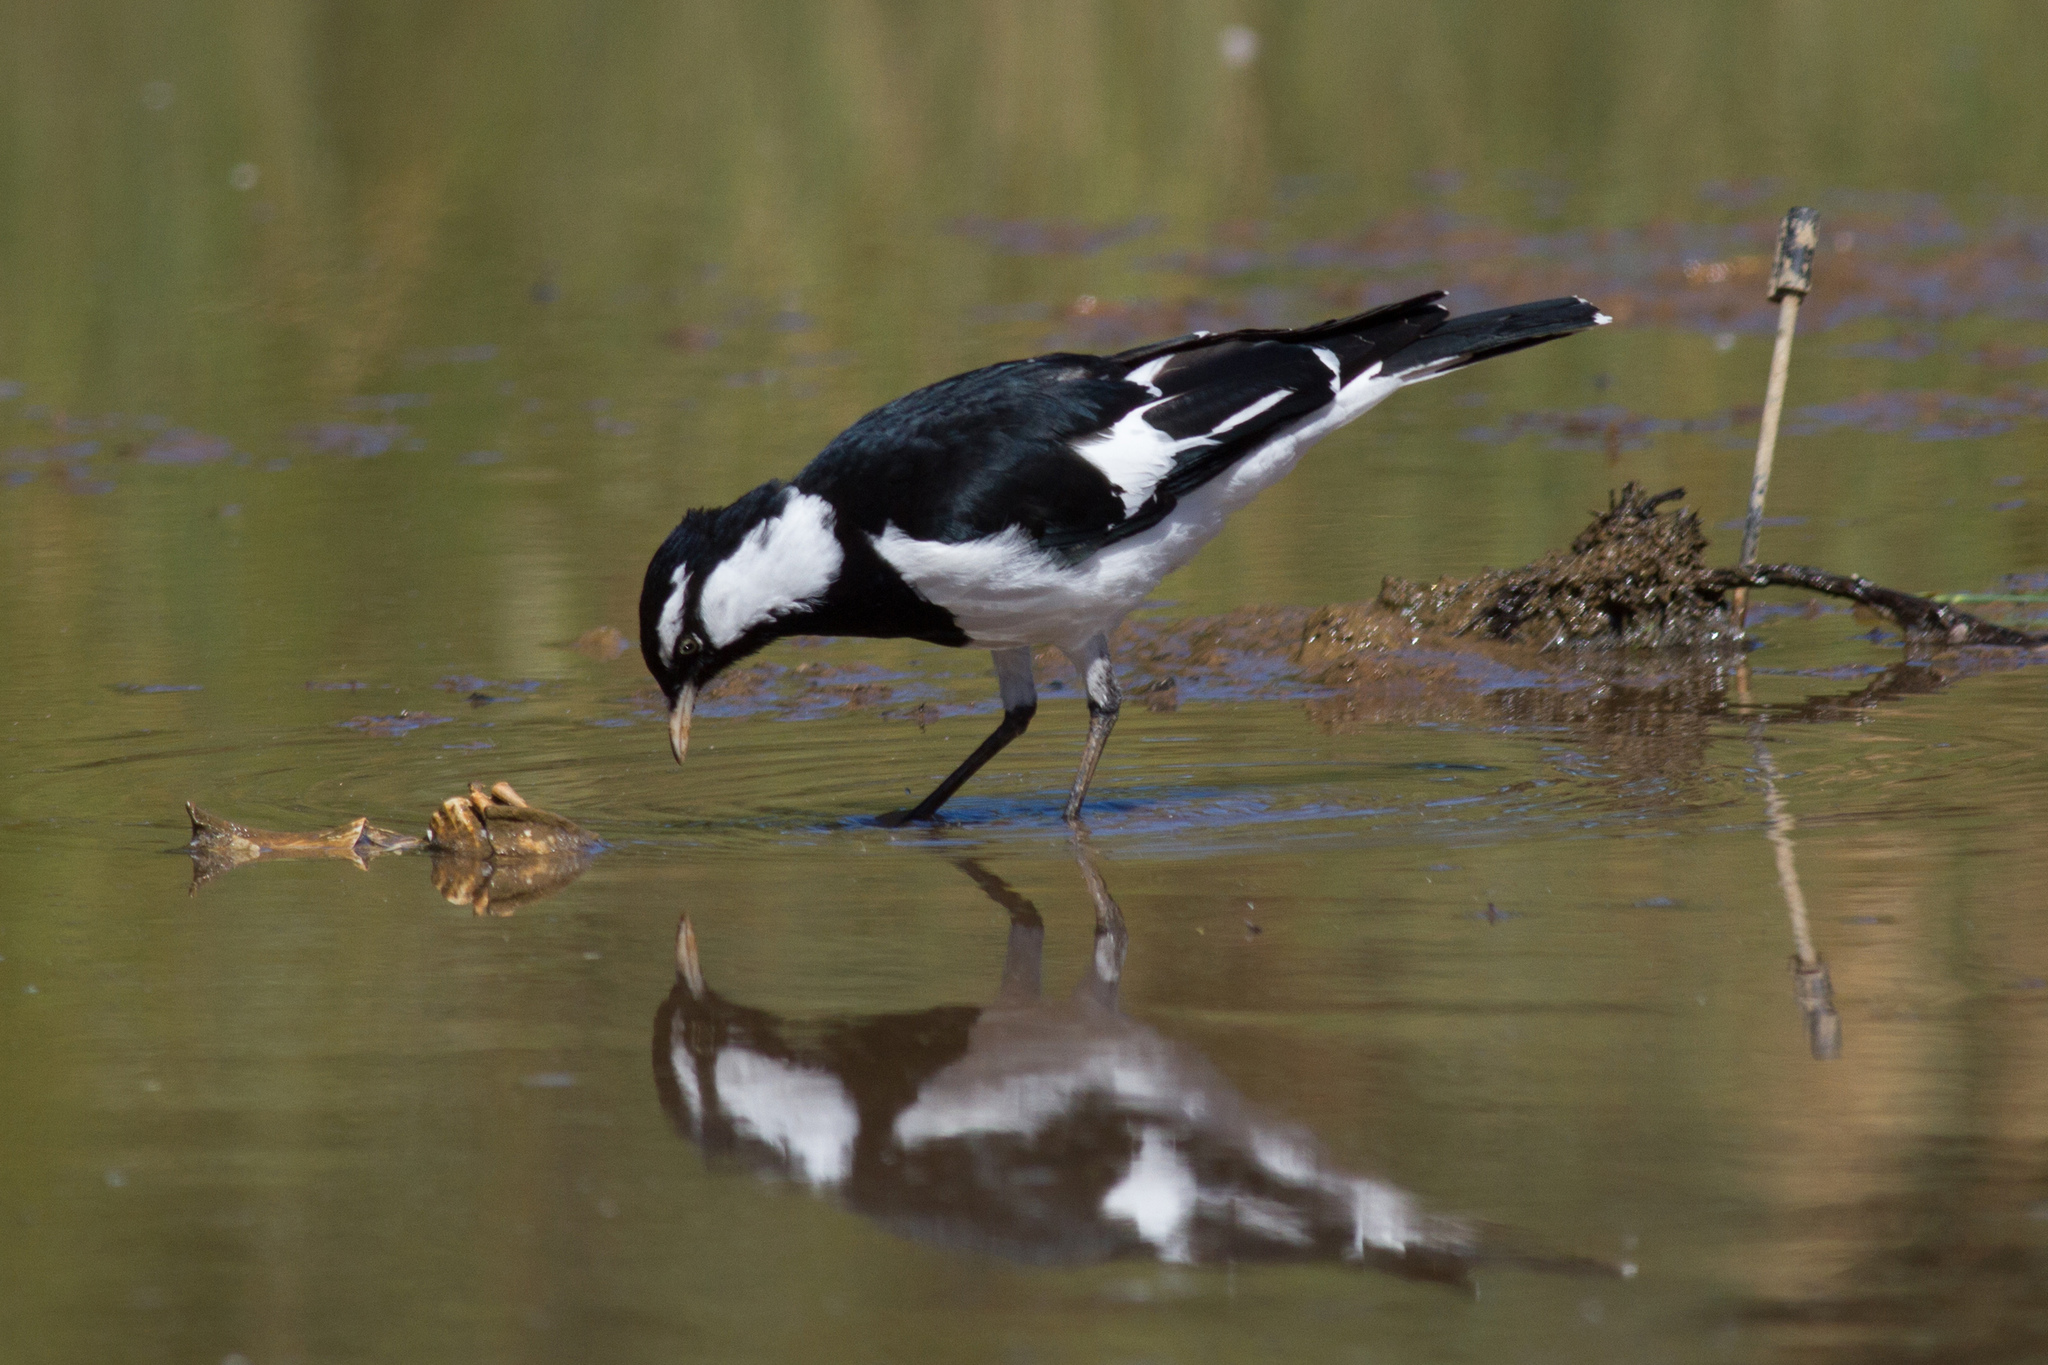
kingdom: Animalia
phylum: Chordata
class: Aves
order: Passeriformes
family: Monarchidae
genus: Grallina
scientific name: Grallina cyanoleuca
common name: Magpie-lark
